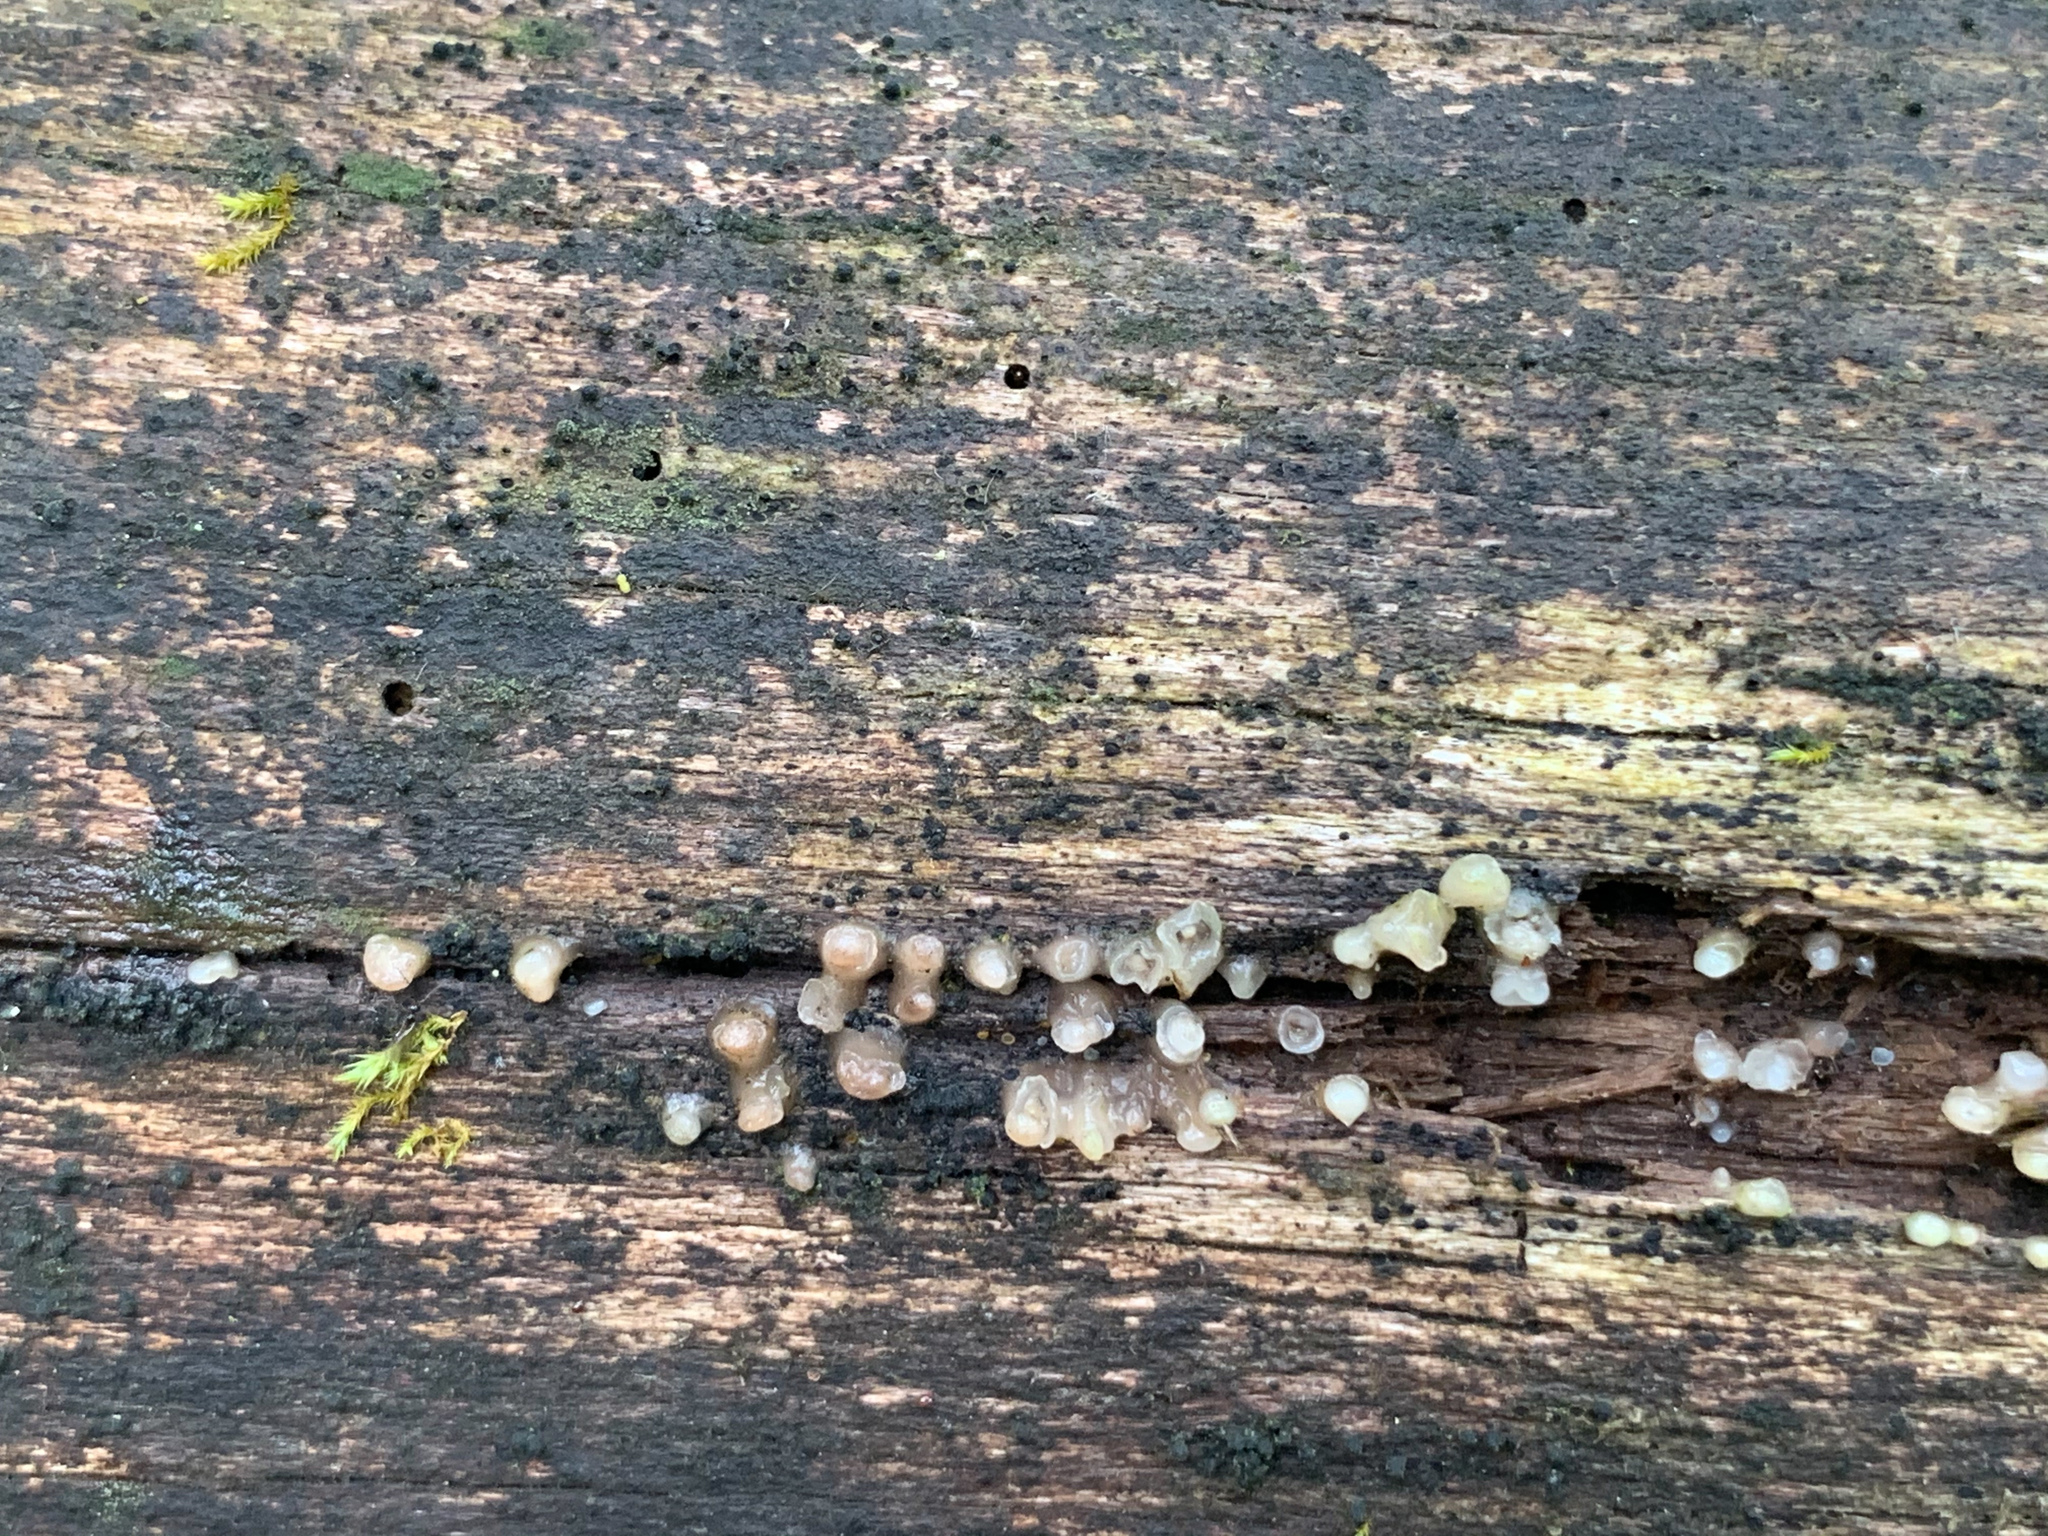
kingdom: Fungi
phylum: Basidiomycota
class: Atractiellomycetes
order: Atractiellales
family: Phleogenaceae
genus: Helicogloea
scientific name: Helicogloea compressa
